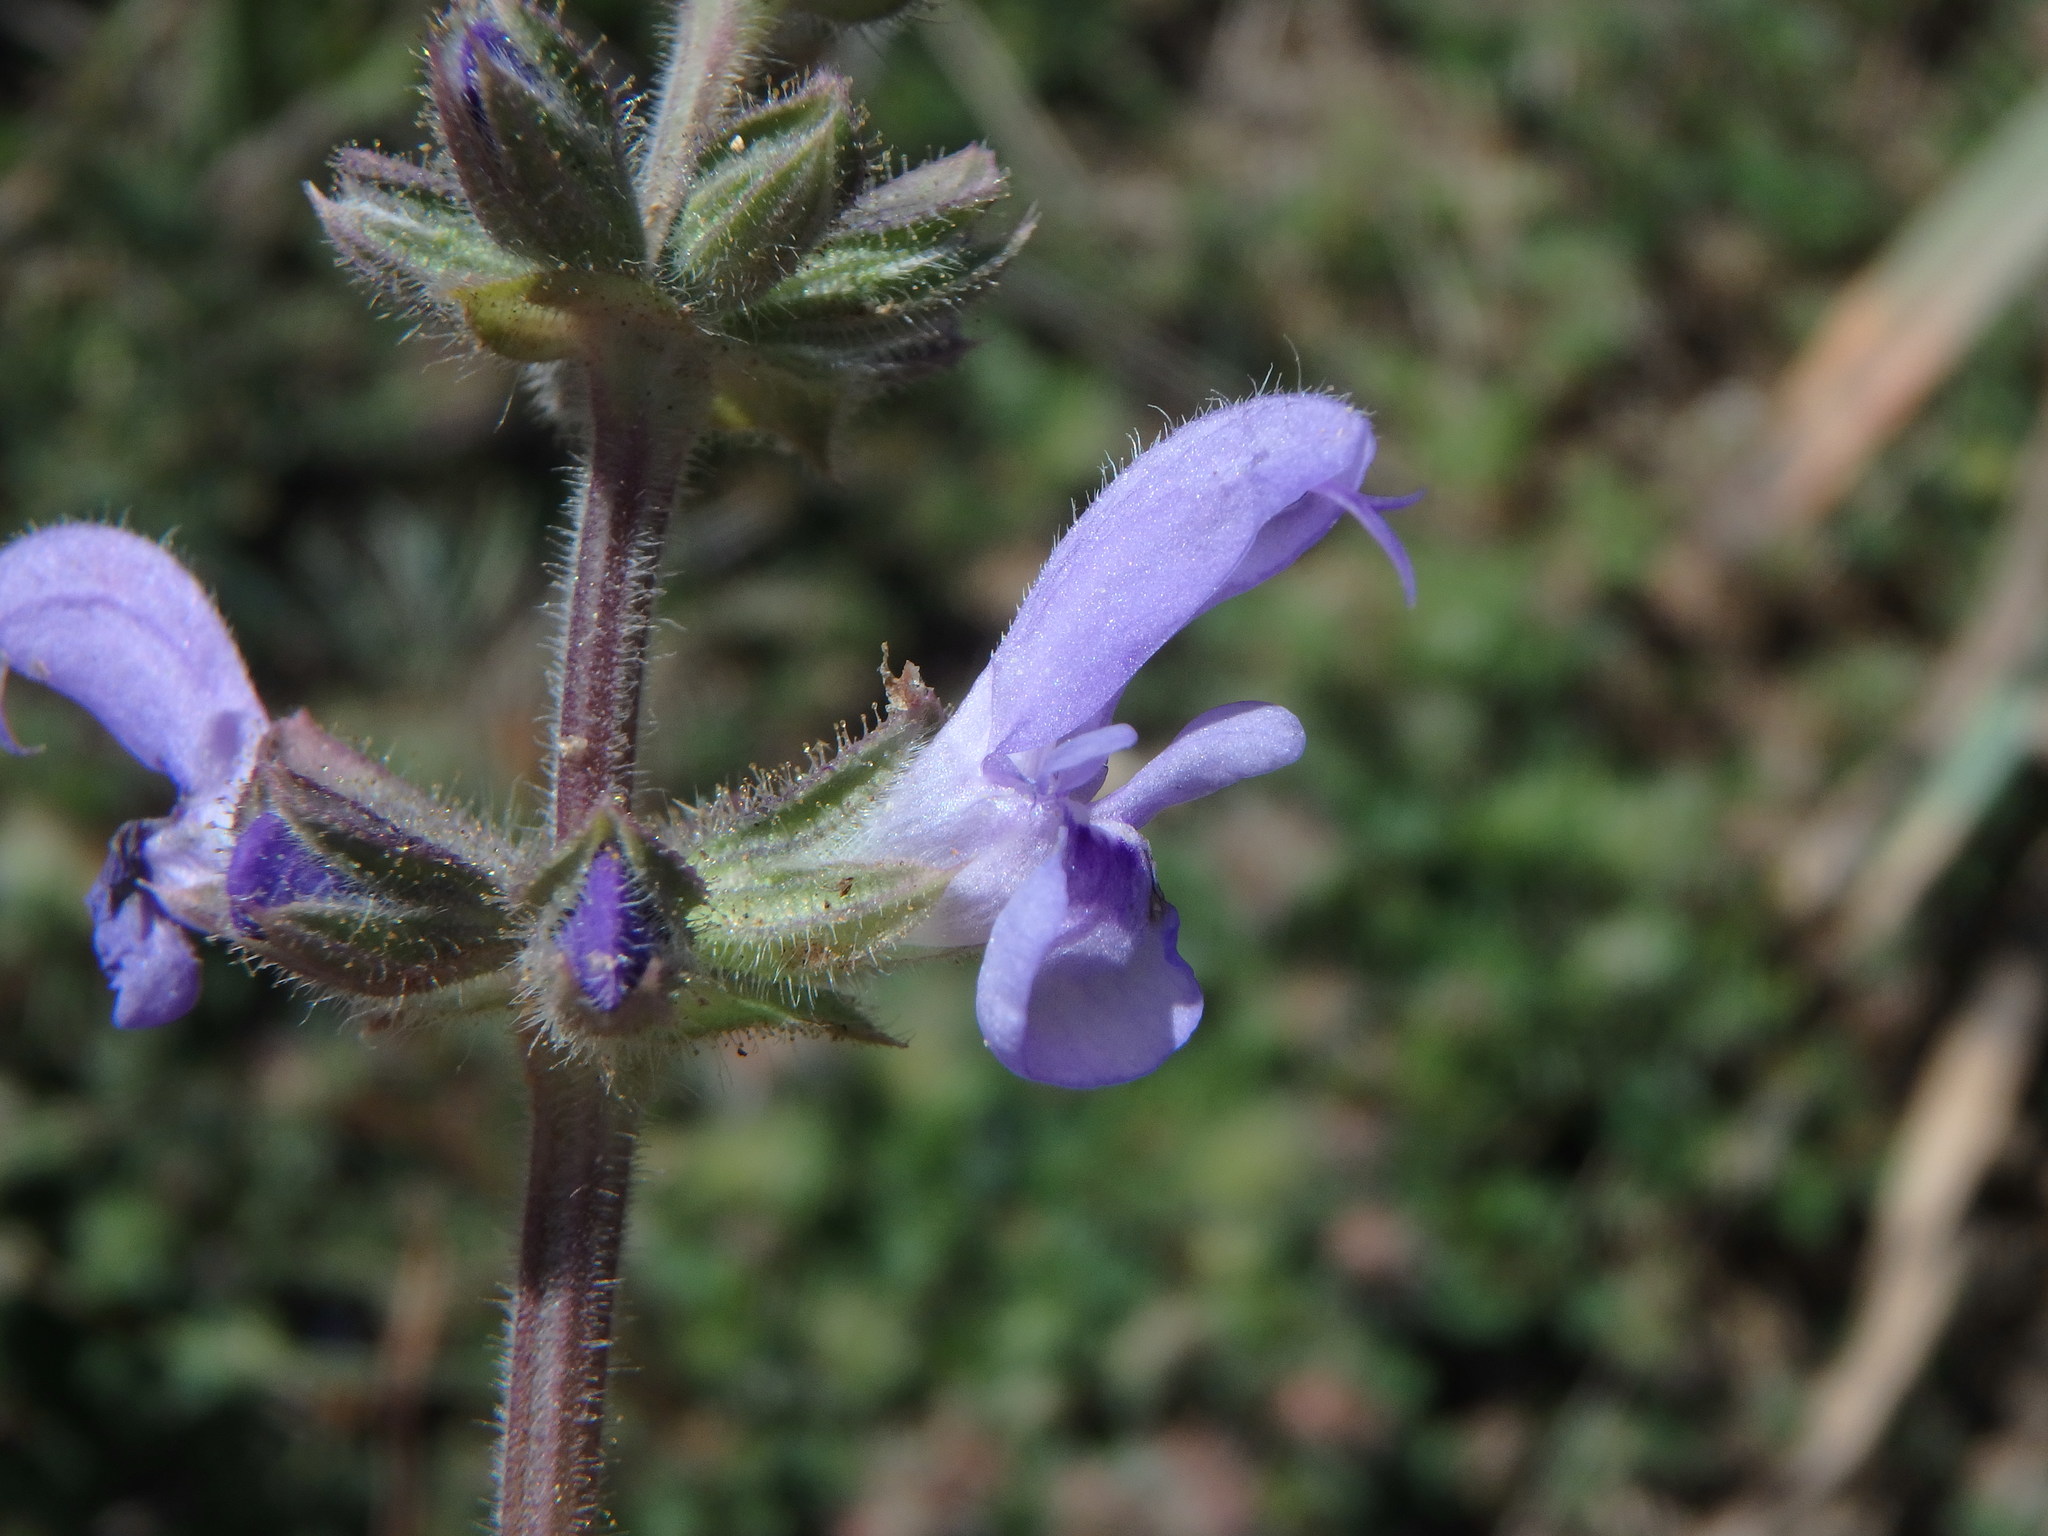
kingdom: Plantae
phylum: Tracheophyta
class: Magnoliopsida
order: Lamiales
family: Lamiaceae
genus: Salvia
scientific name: Salvia verbenaca
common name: Wild clary
